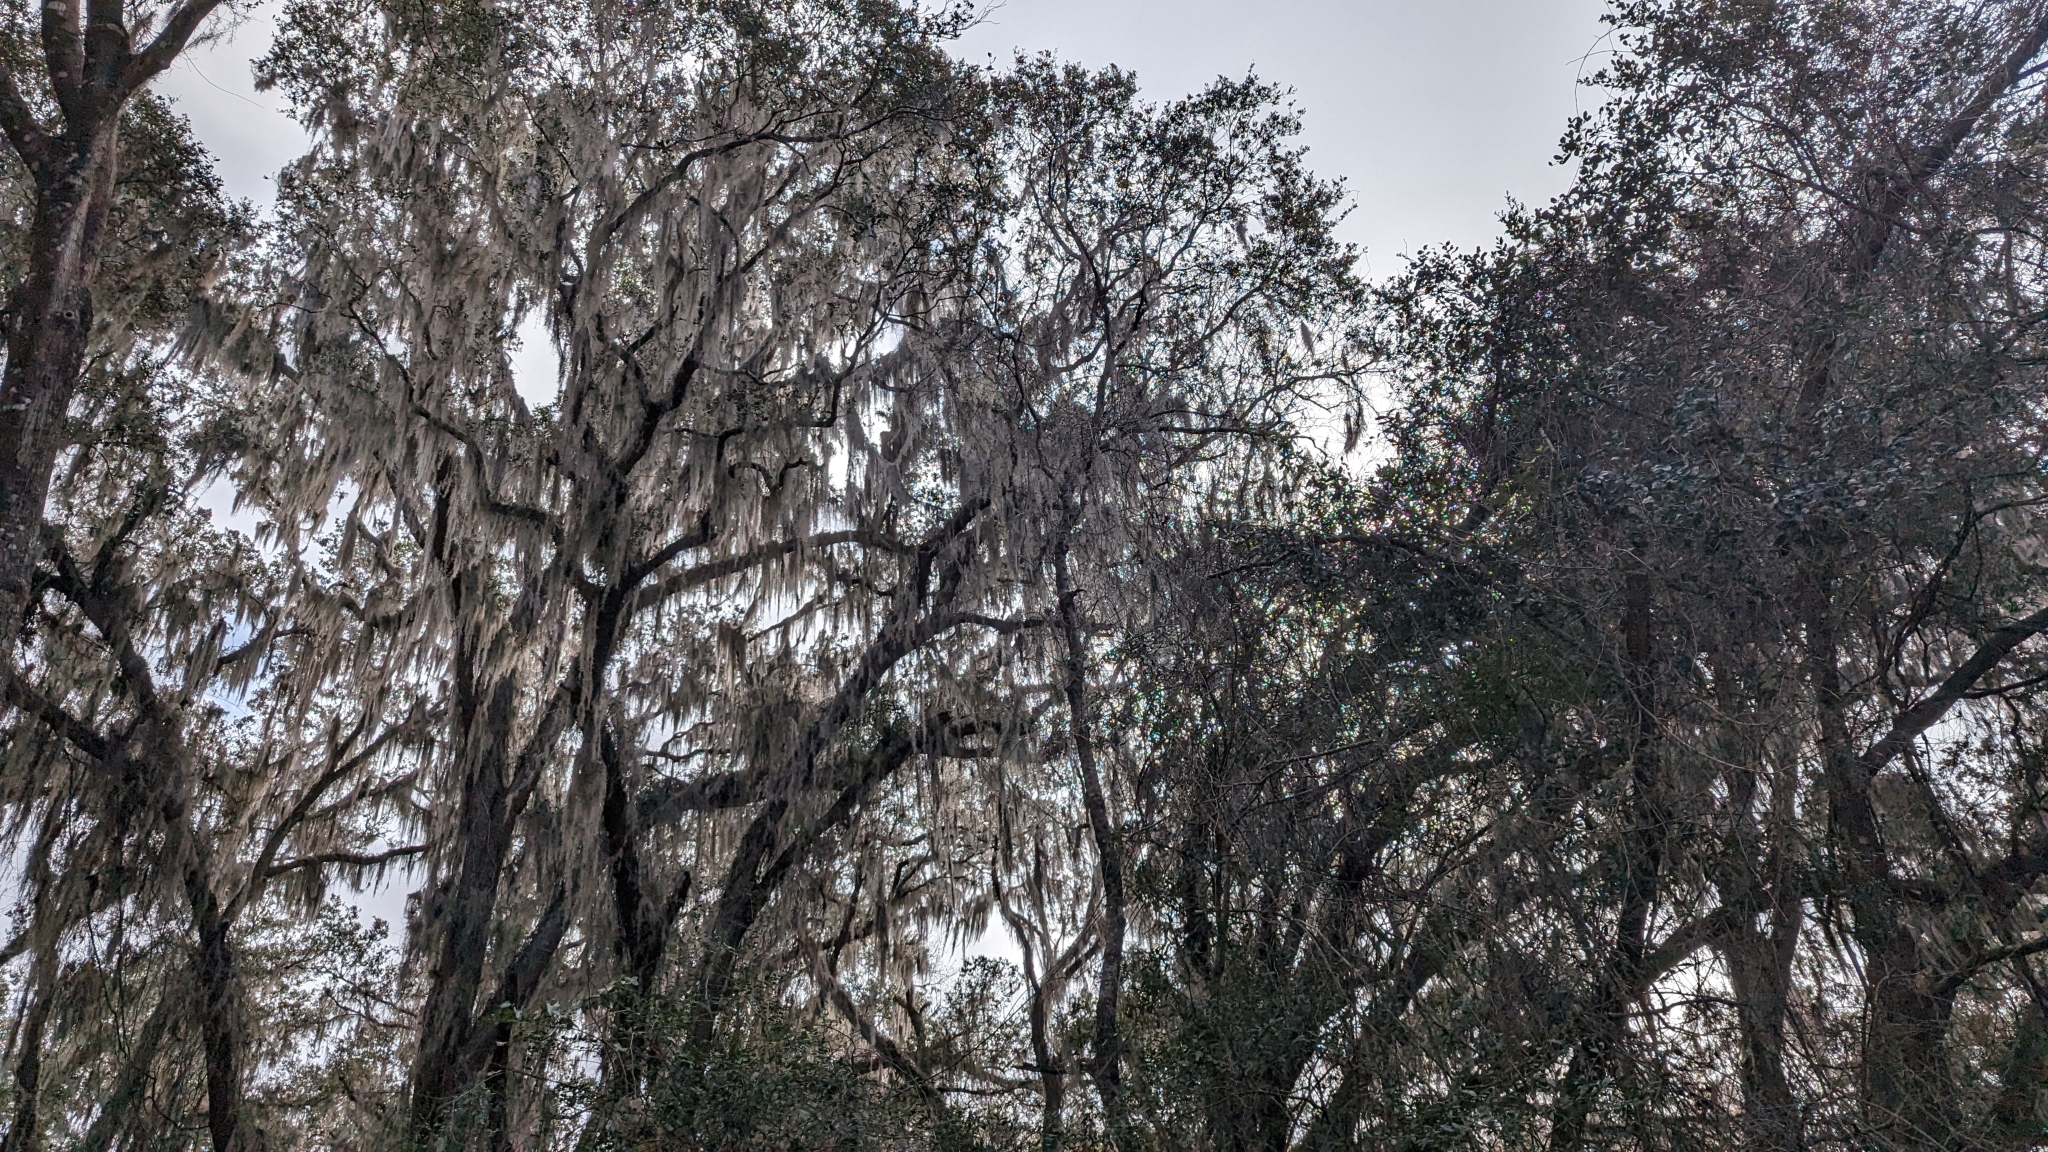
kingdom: Plantae
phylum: Tracheophyta
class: Liliopsida
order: Poales
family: Bromeliaceae
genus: Tillandsia
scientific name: Tillandsia usneoides
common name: Spanish moss
